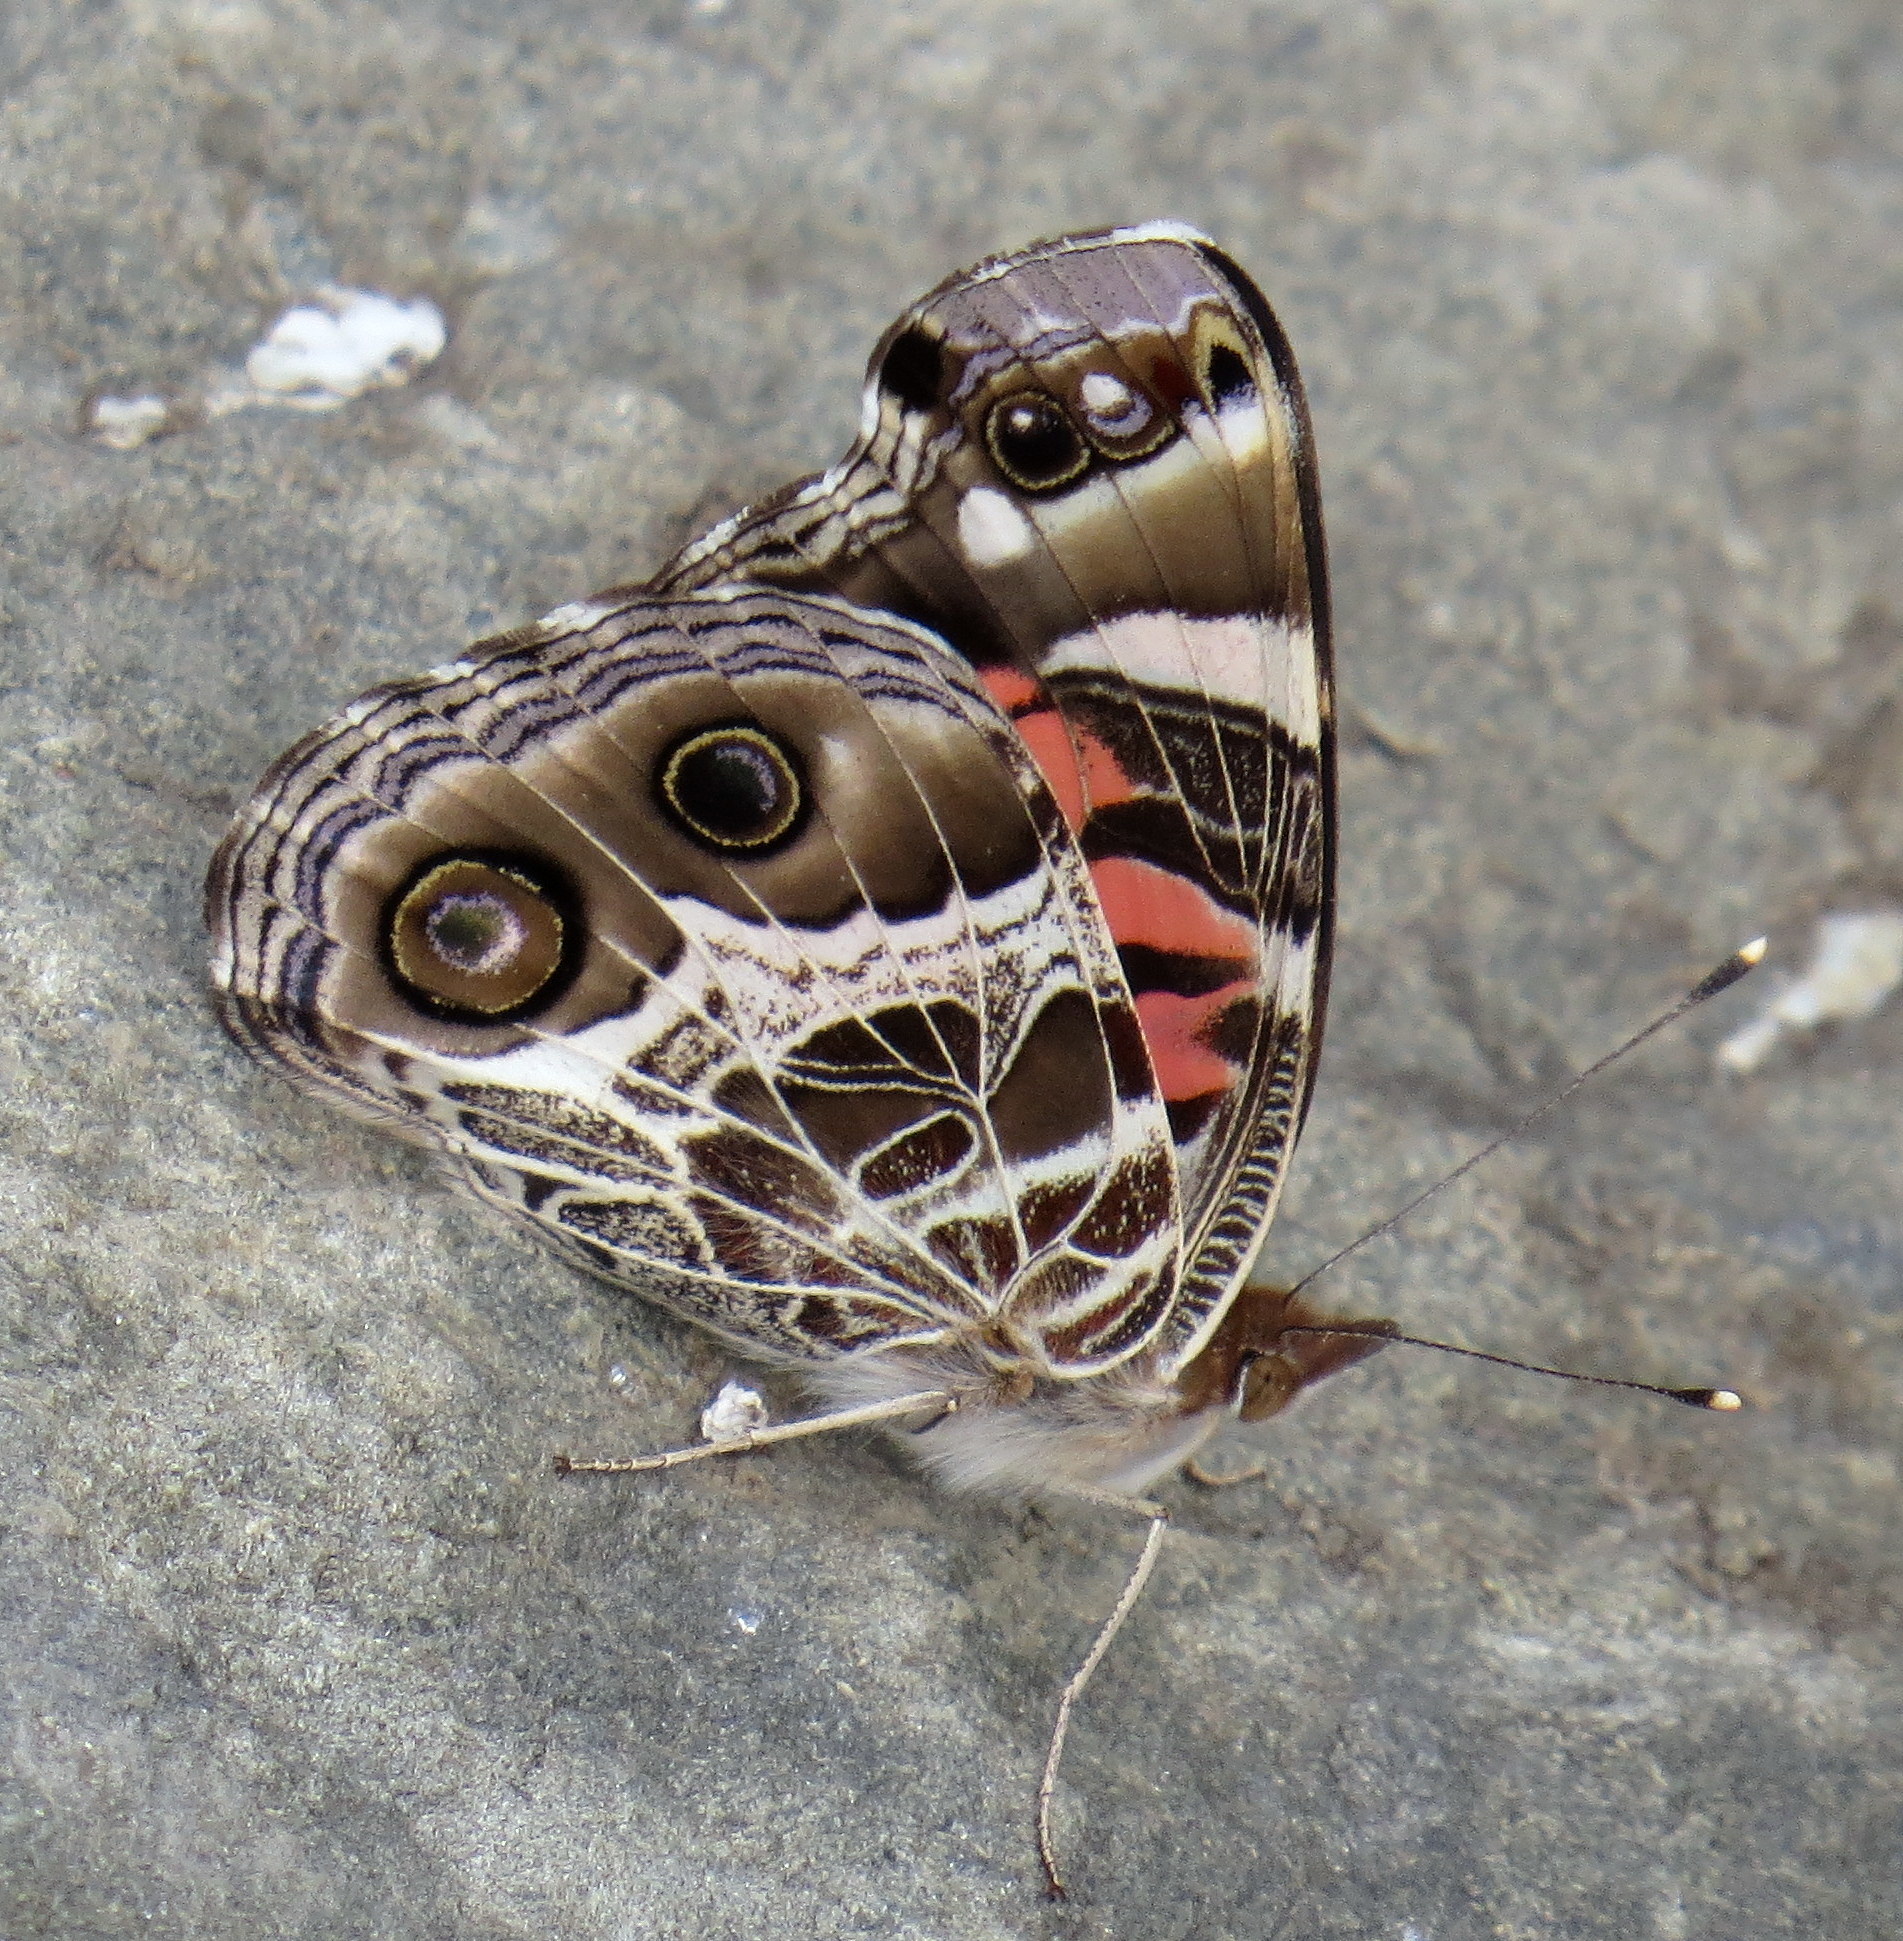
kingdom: Animalia
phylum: Arthropoda
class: Insecta
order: Lepidoptera
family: Nymphalidae
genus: Vanessa
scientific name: Vanessa virginiensis
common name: American lady
